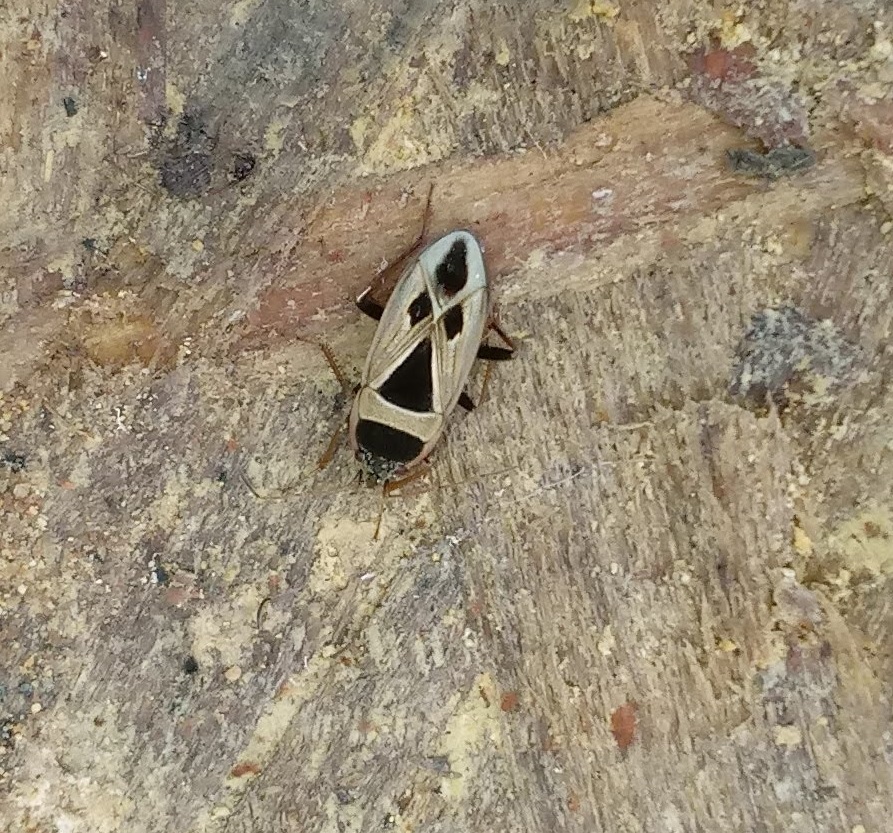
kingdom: Animalia
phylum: Arthropoda
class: Insecta
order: Hemiptera
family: Rhyparochromidae
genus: Xanthochilus
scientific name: Xanthochilus saturnius
